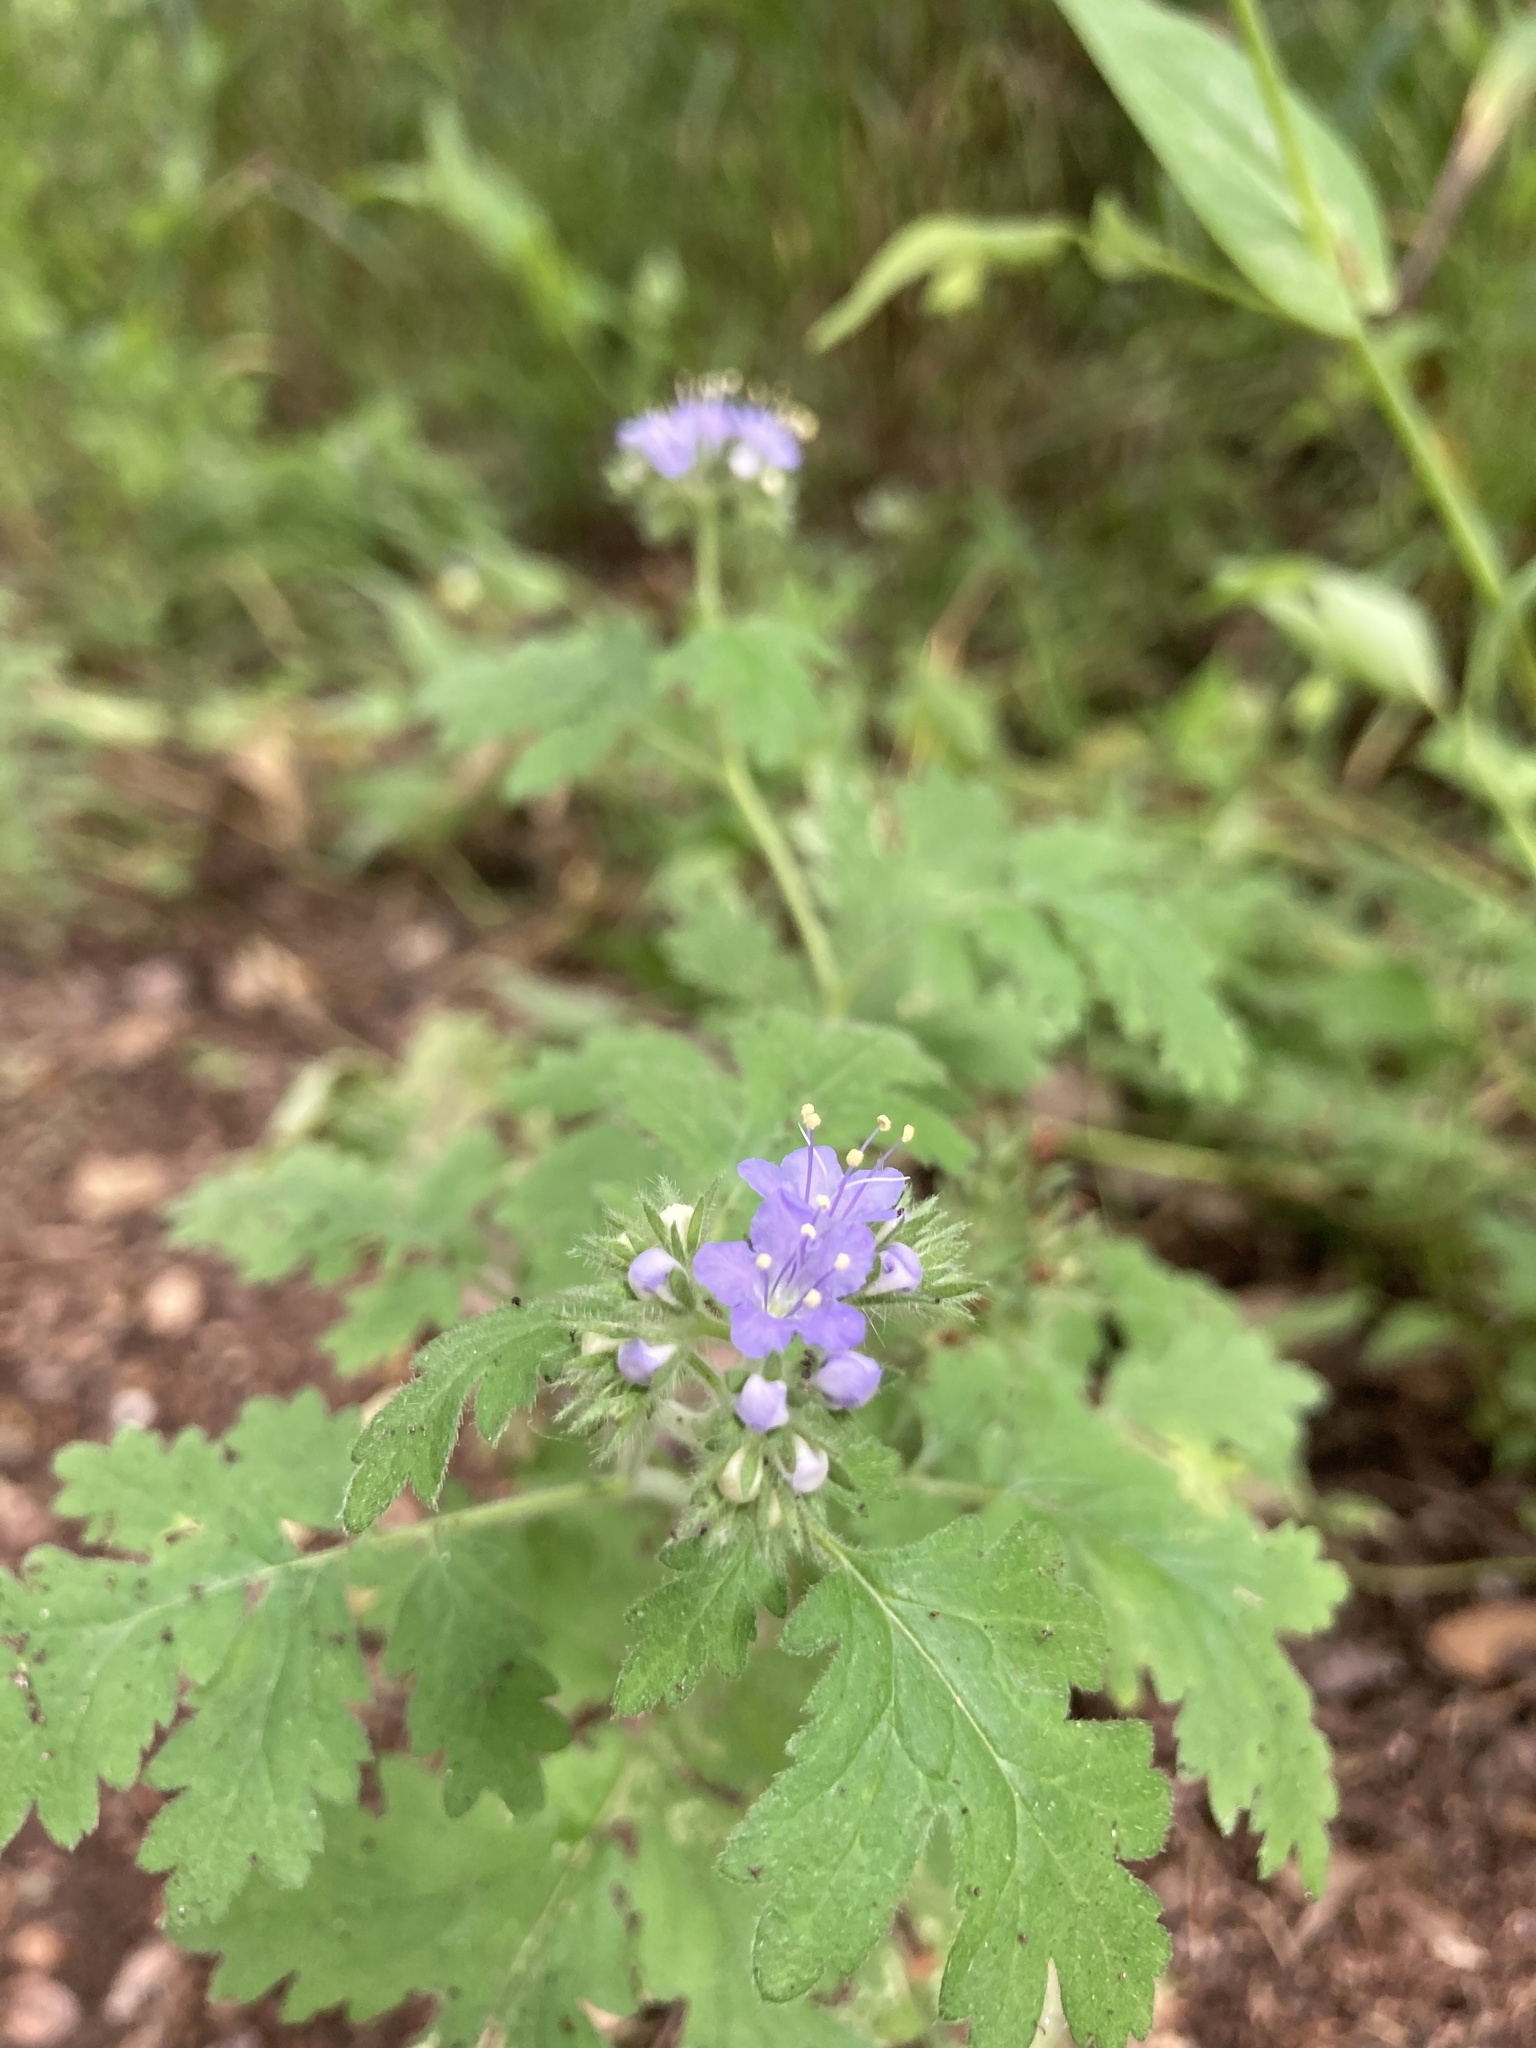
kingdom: Plantae
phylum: Tracheophyta
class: Magnoliopsida
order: Boraginales
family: Hydrophyllaceae
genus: Phacelia
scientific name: Phacelia congesta
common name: Blue curls
